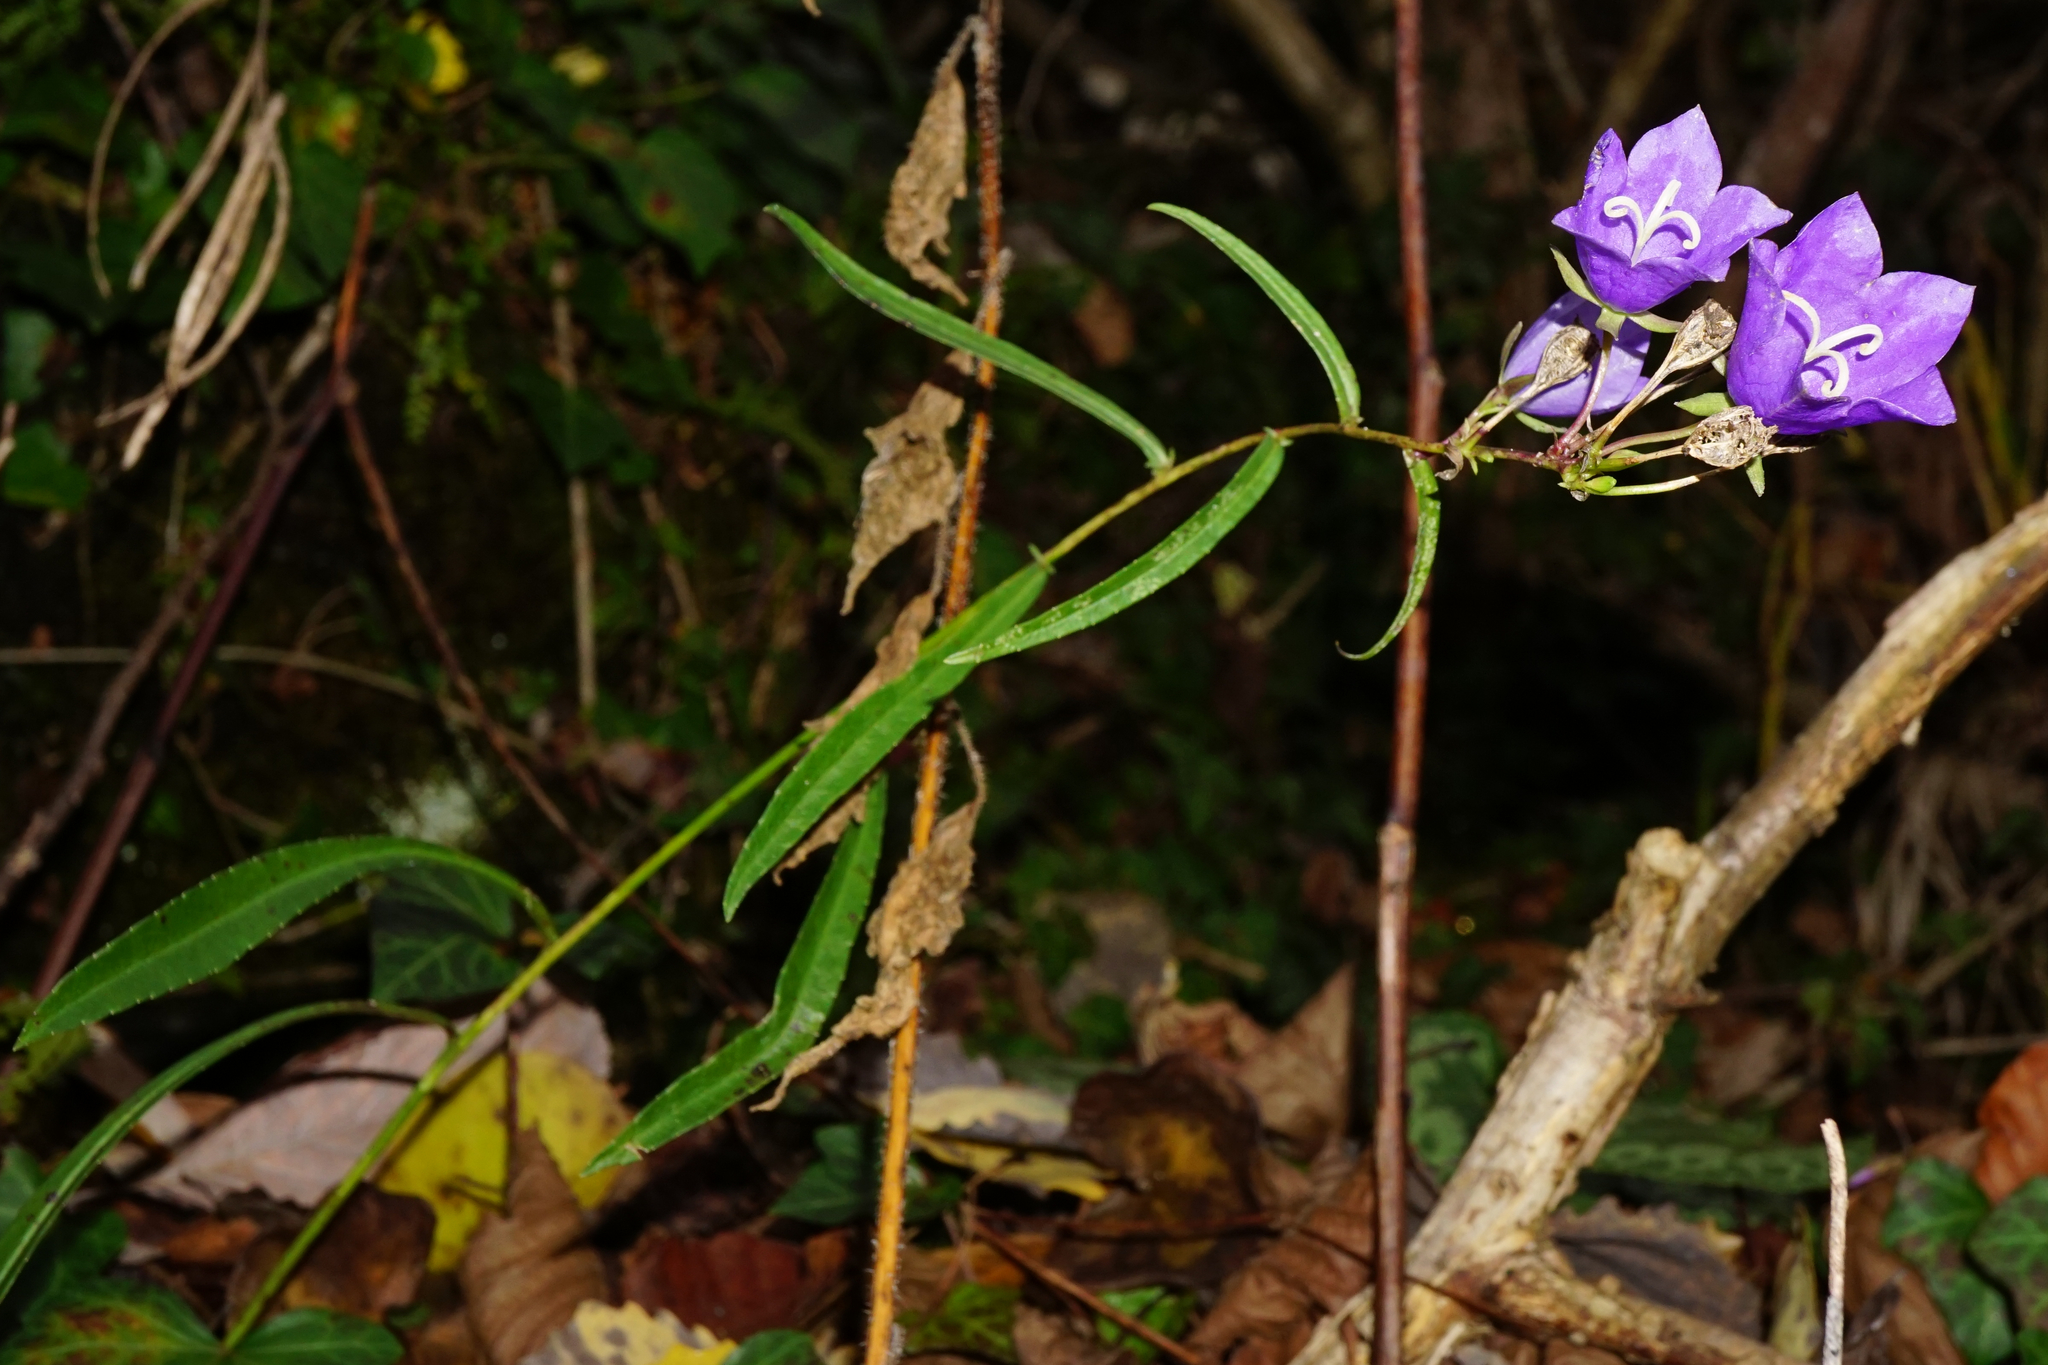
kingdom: Plantae
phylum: Tracheophyta
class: Magnoliopsida
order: Asterales
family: Campanulaceae
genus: Campanula
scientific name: Campanula persicifolia
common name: Peach-leaved bellflower
